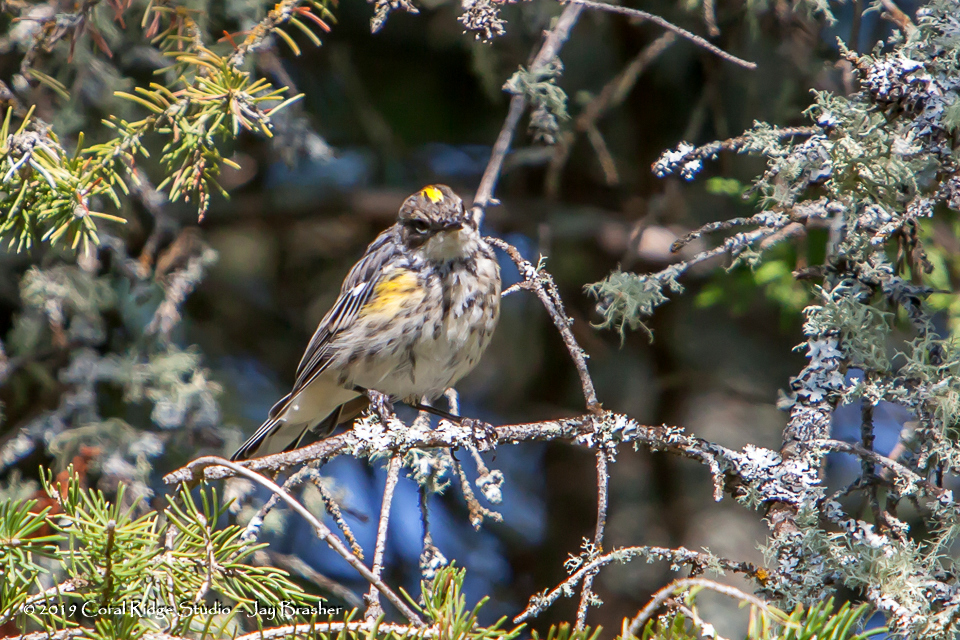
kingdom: Animalia
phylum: Chordata
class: Aves
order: Passeriformes
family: Parulidae
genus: Setophaga
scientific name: Setophaga coronata
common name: Myrtle warbler
